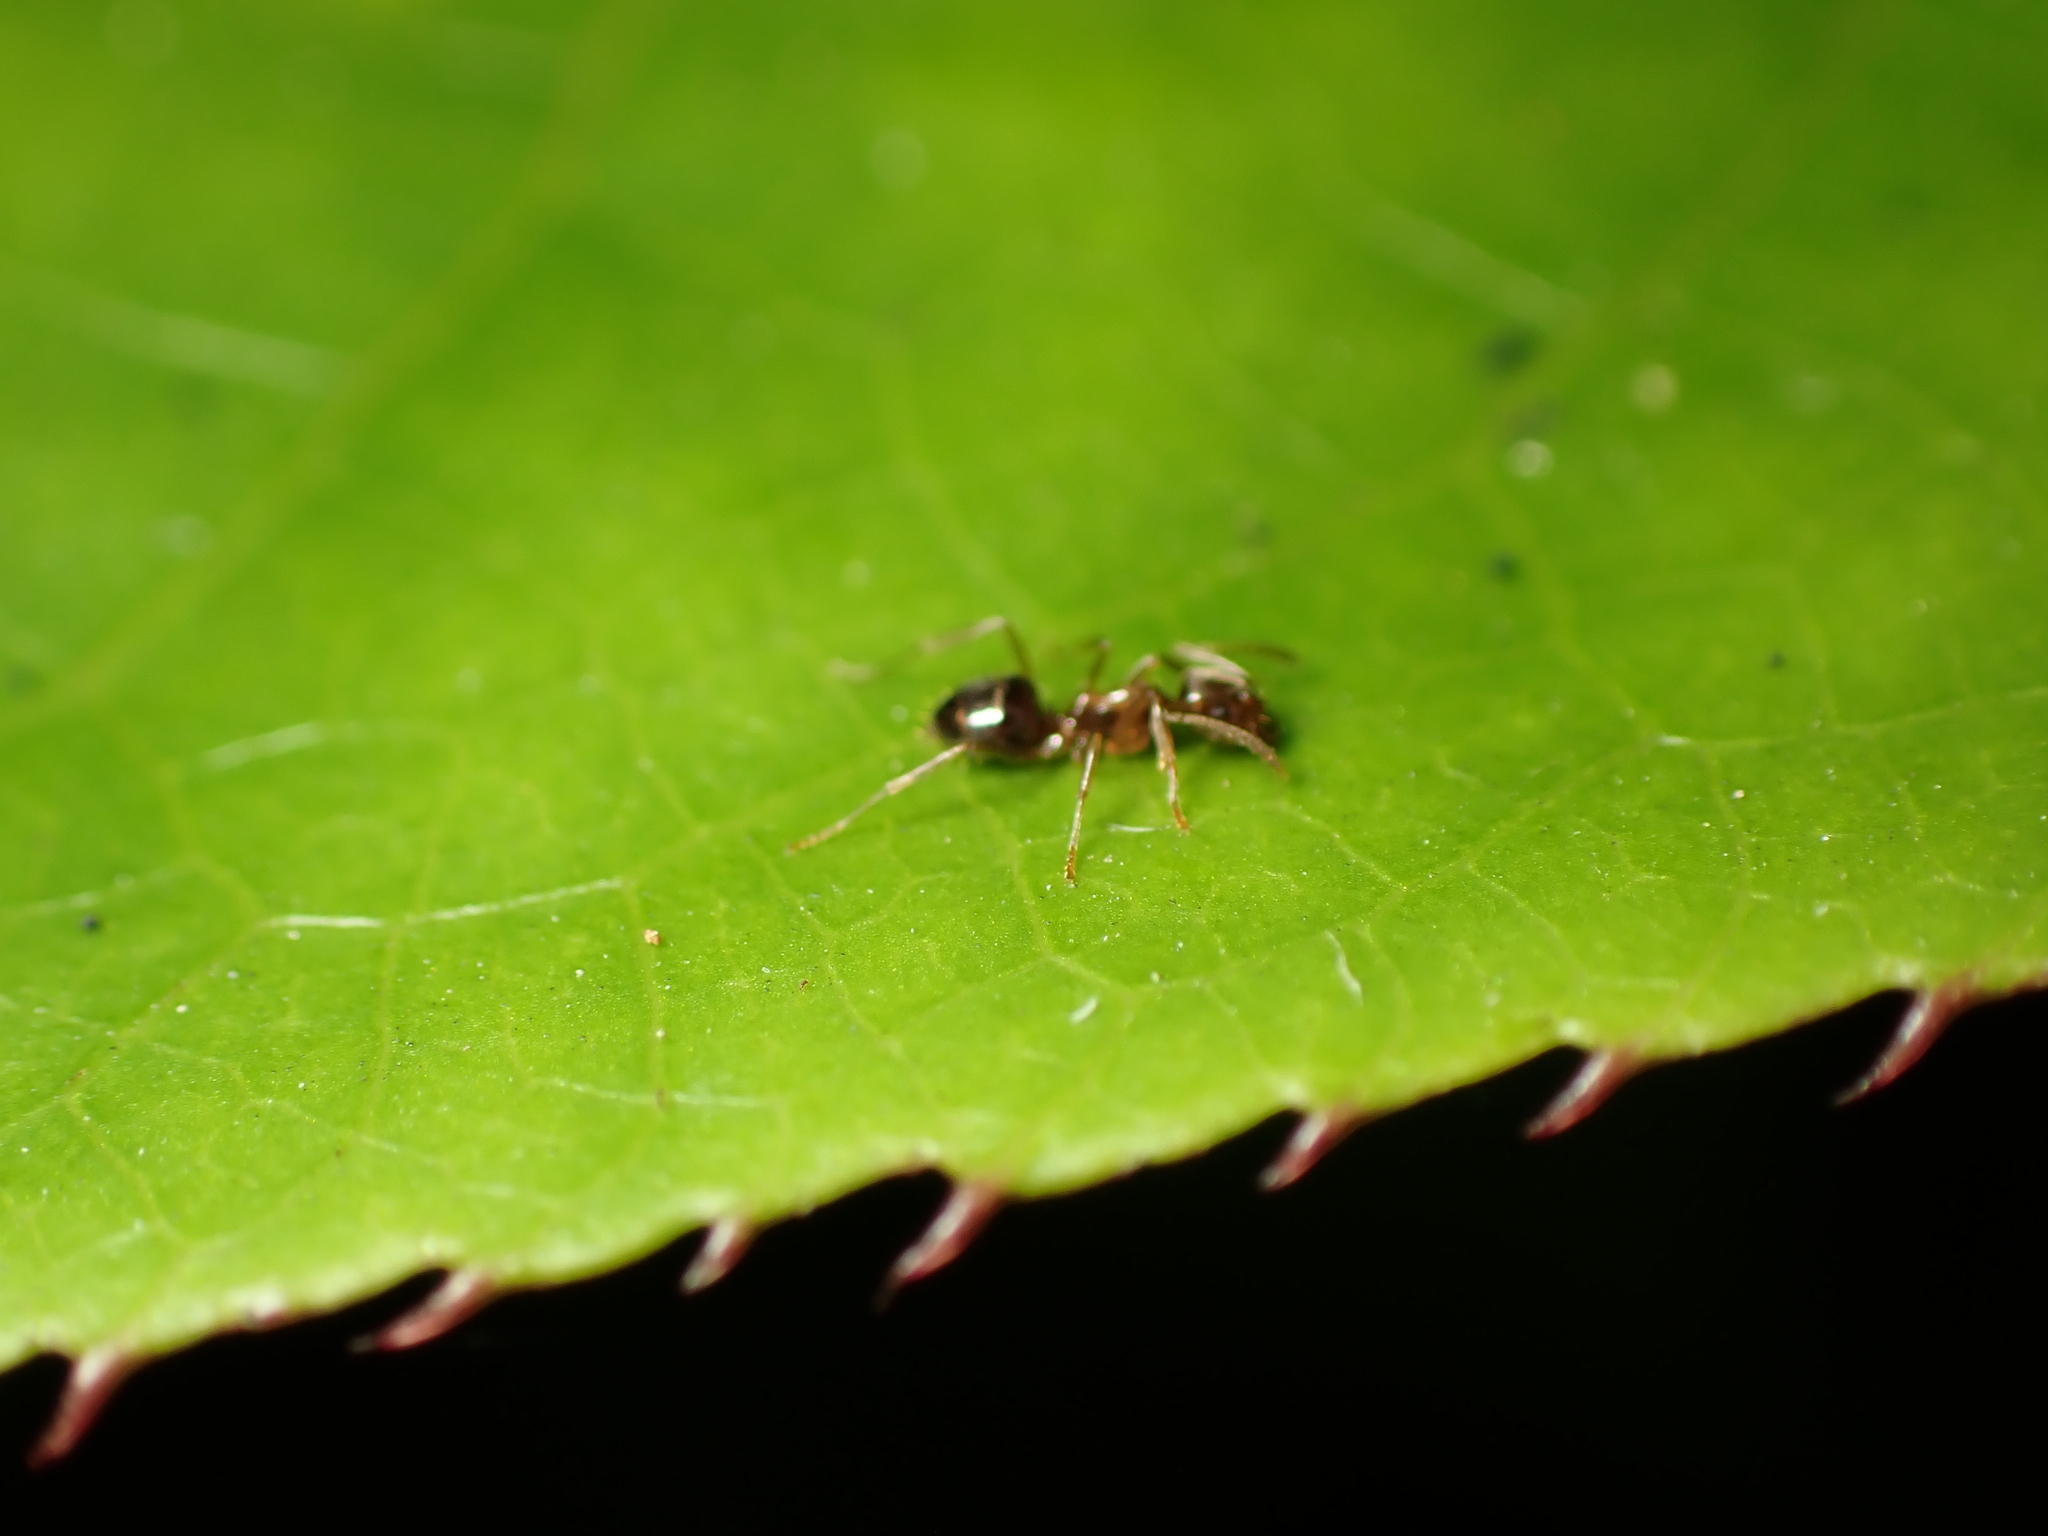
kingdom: Animalia
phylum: Arthropoda
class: Insecta
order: Hymenoptera
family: Formicidae
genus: Prolasius
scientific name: Prolasius advenus
